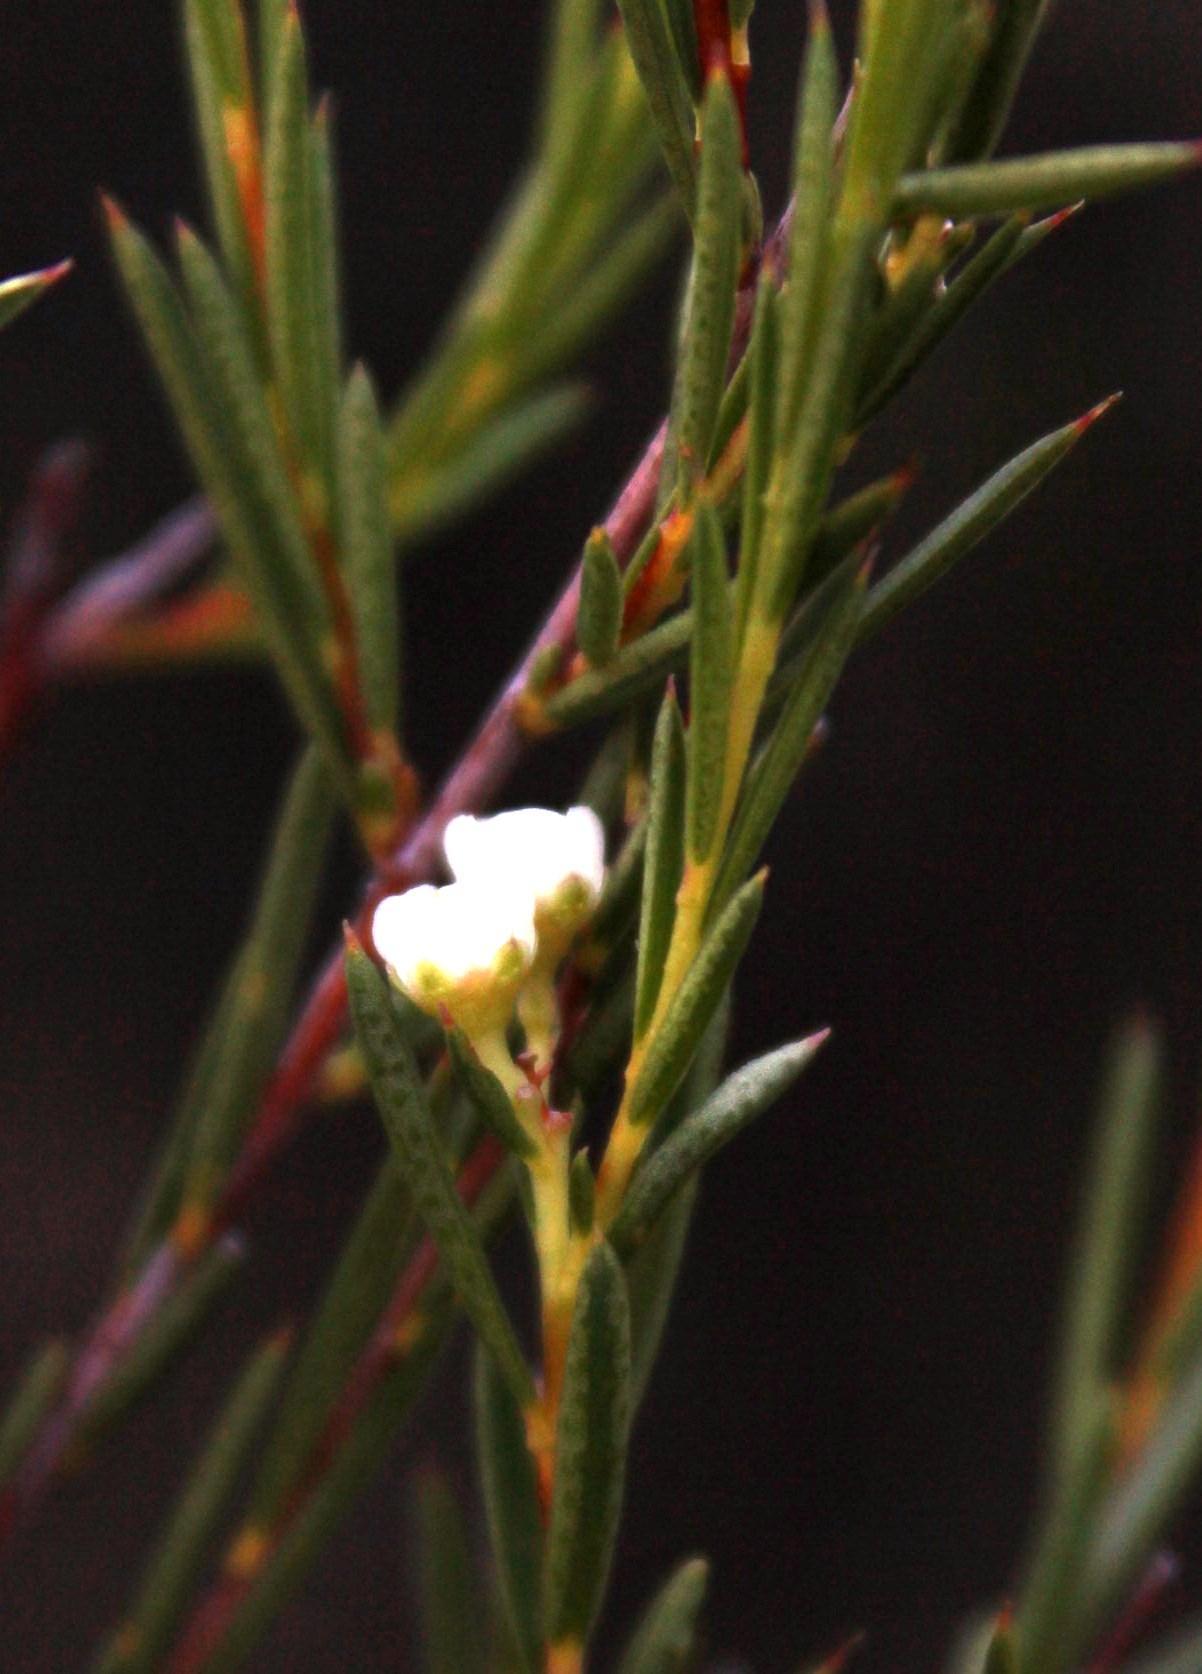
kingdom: Plantae
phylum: Tracheophyta
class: Magnoliopsida
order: Sapindales
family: Rutaceae
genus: Diosma
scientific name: Diosma hirsuta
